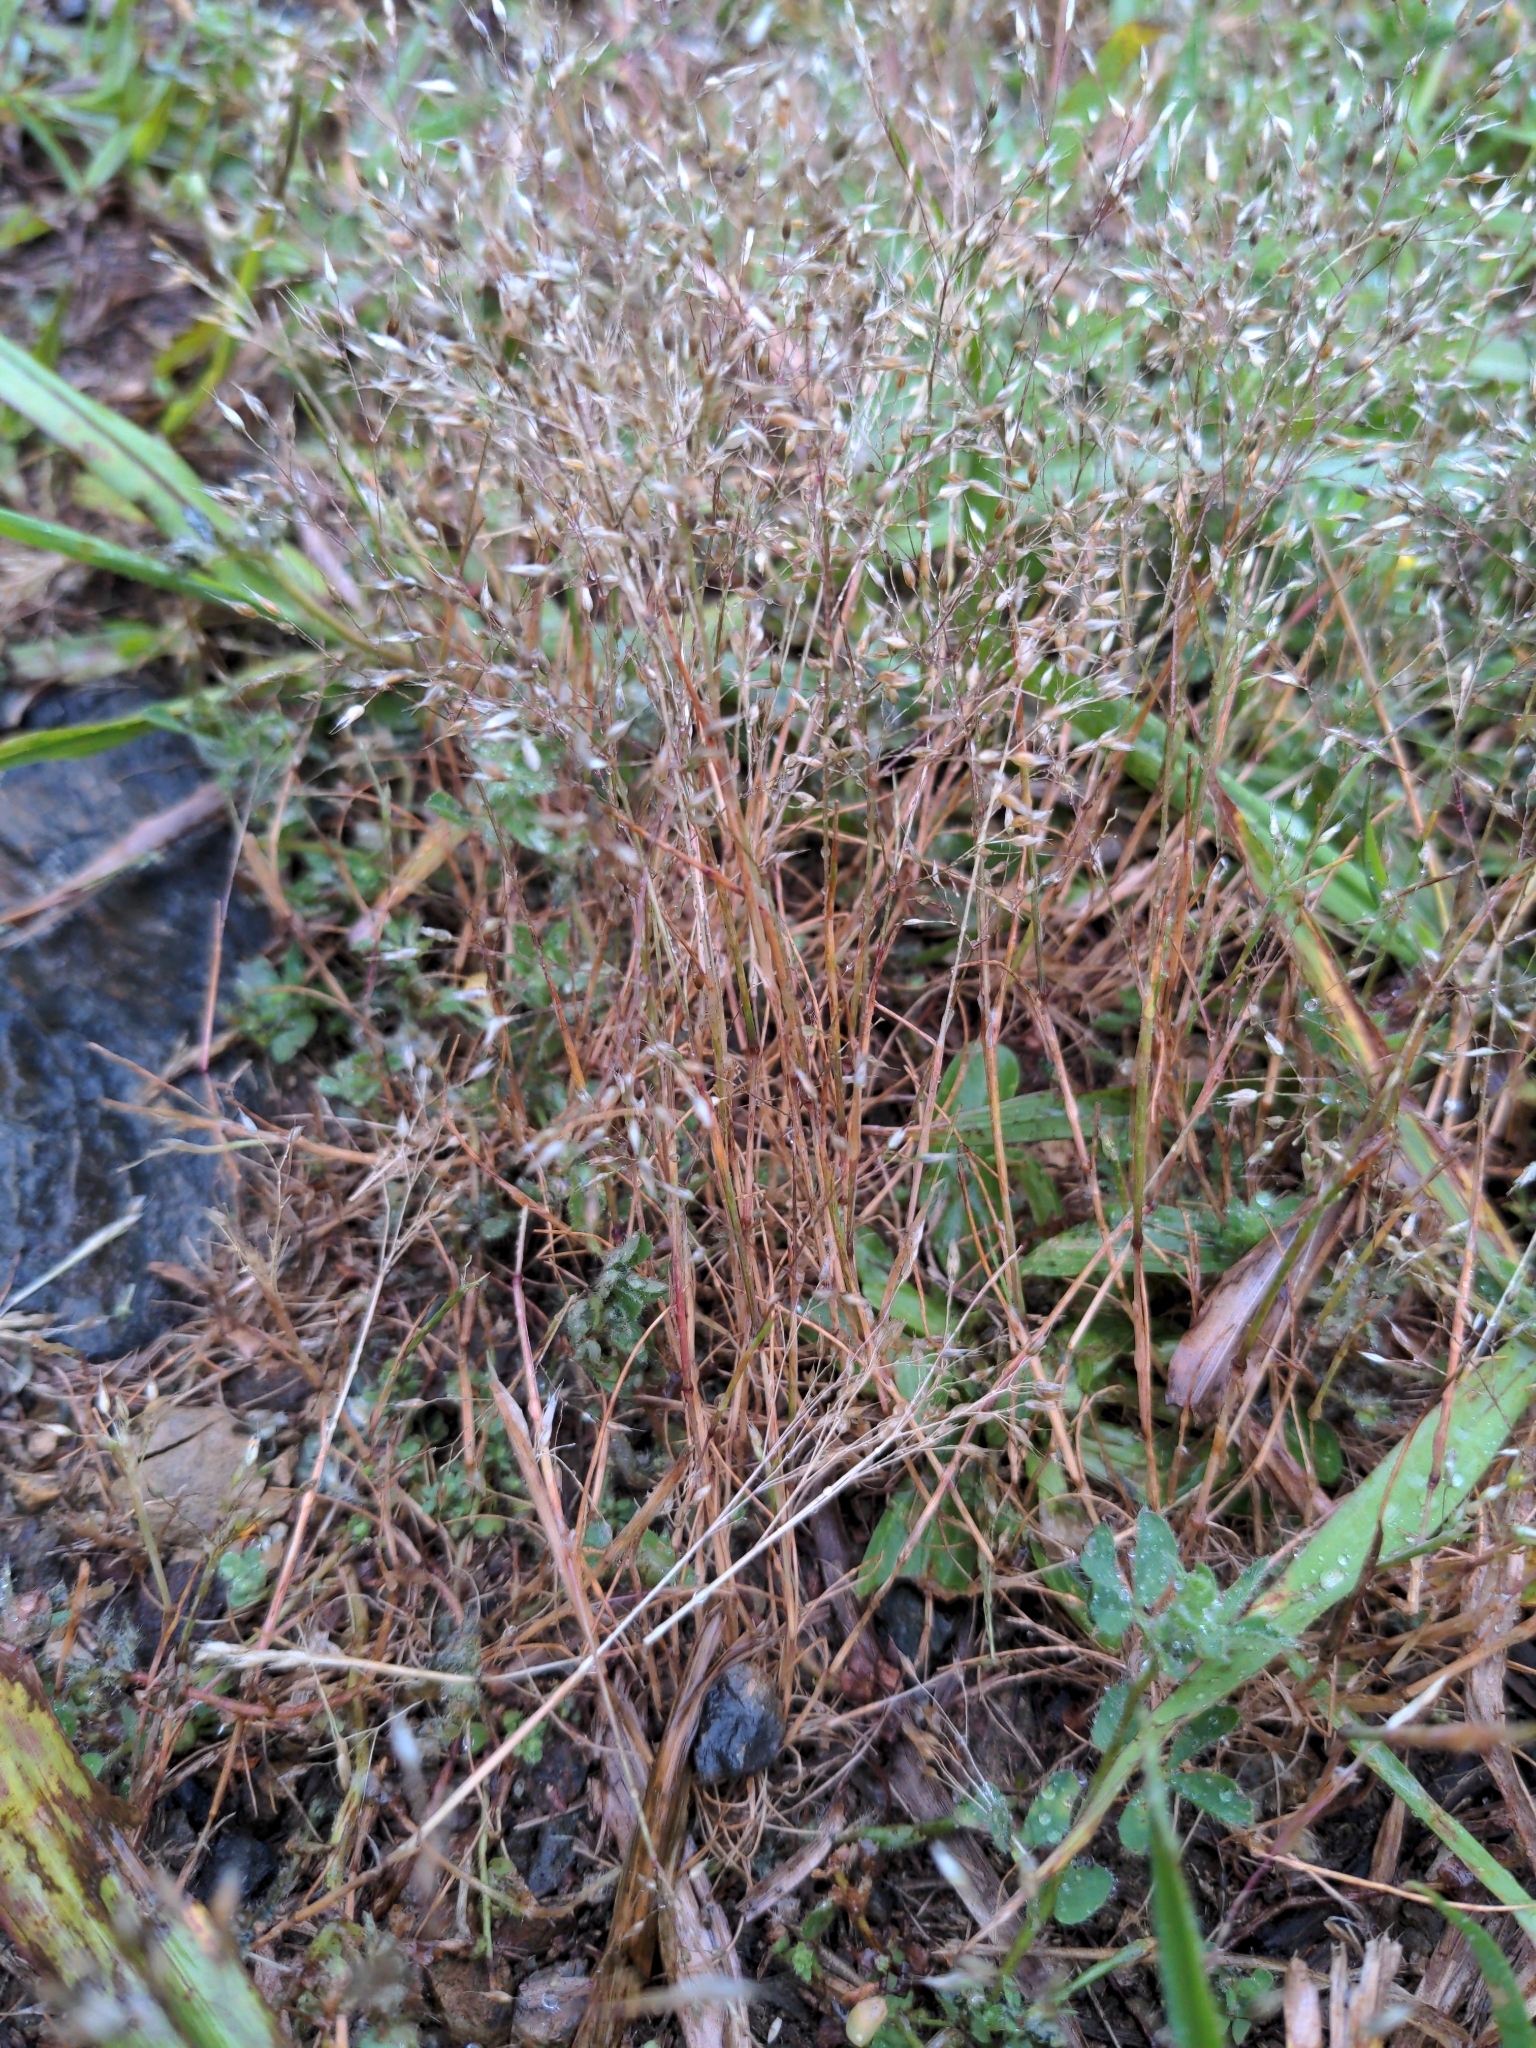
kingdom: Plantae
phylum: Tracheophyta
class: Liliopsida
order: Poales
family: Poaceae
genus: Aira
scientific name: Aira caryophyllea
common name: Silver hairgrass
